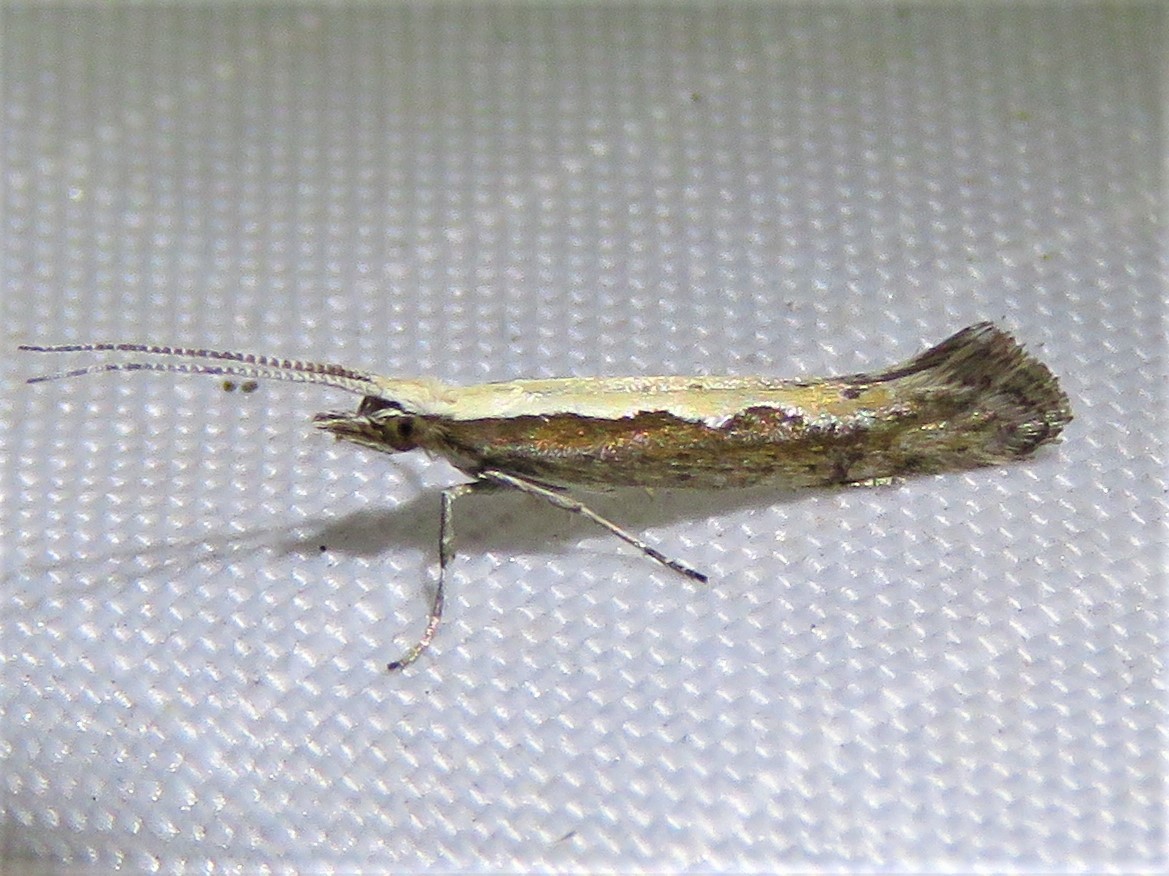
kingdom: Animalia
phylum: Arthropoda
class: Insecta
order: Lepidoptera
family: Plutellidae
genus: Plutella
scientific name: Plutella xylostella
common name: Diamond-back moth
